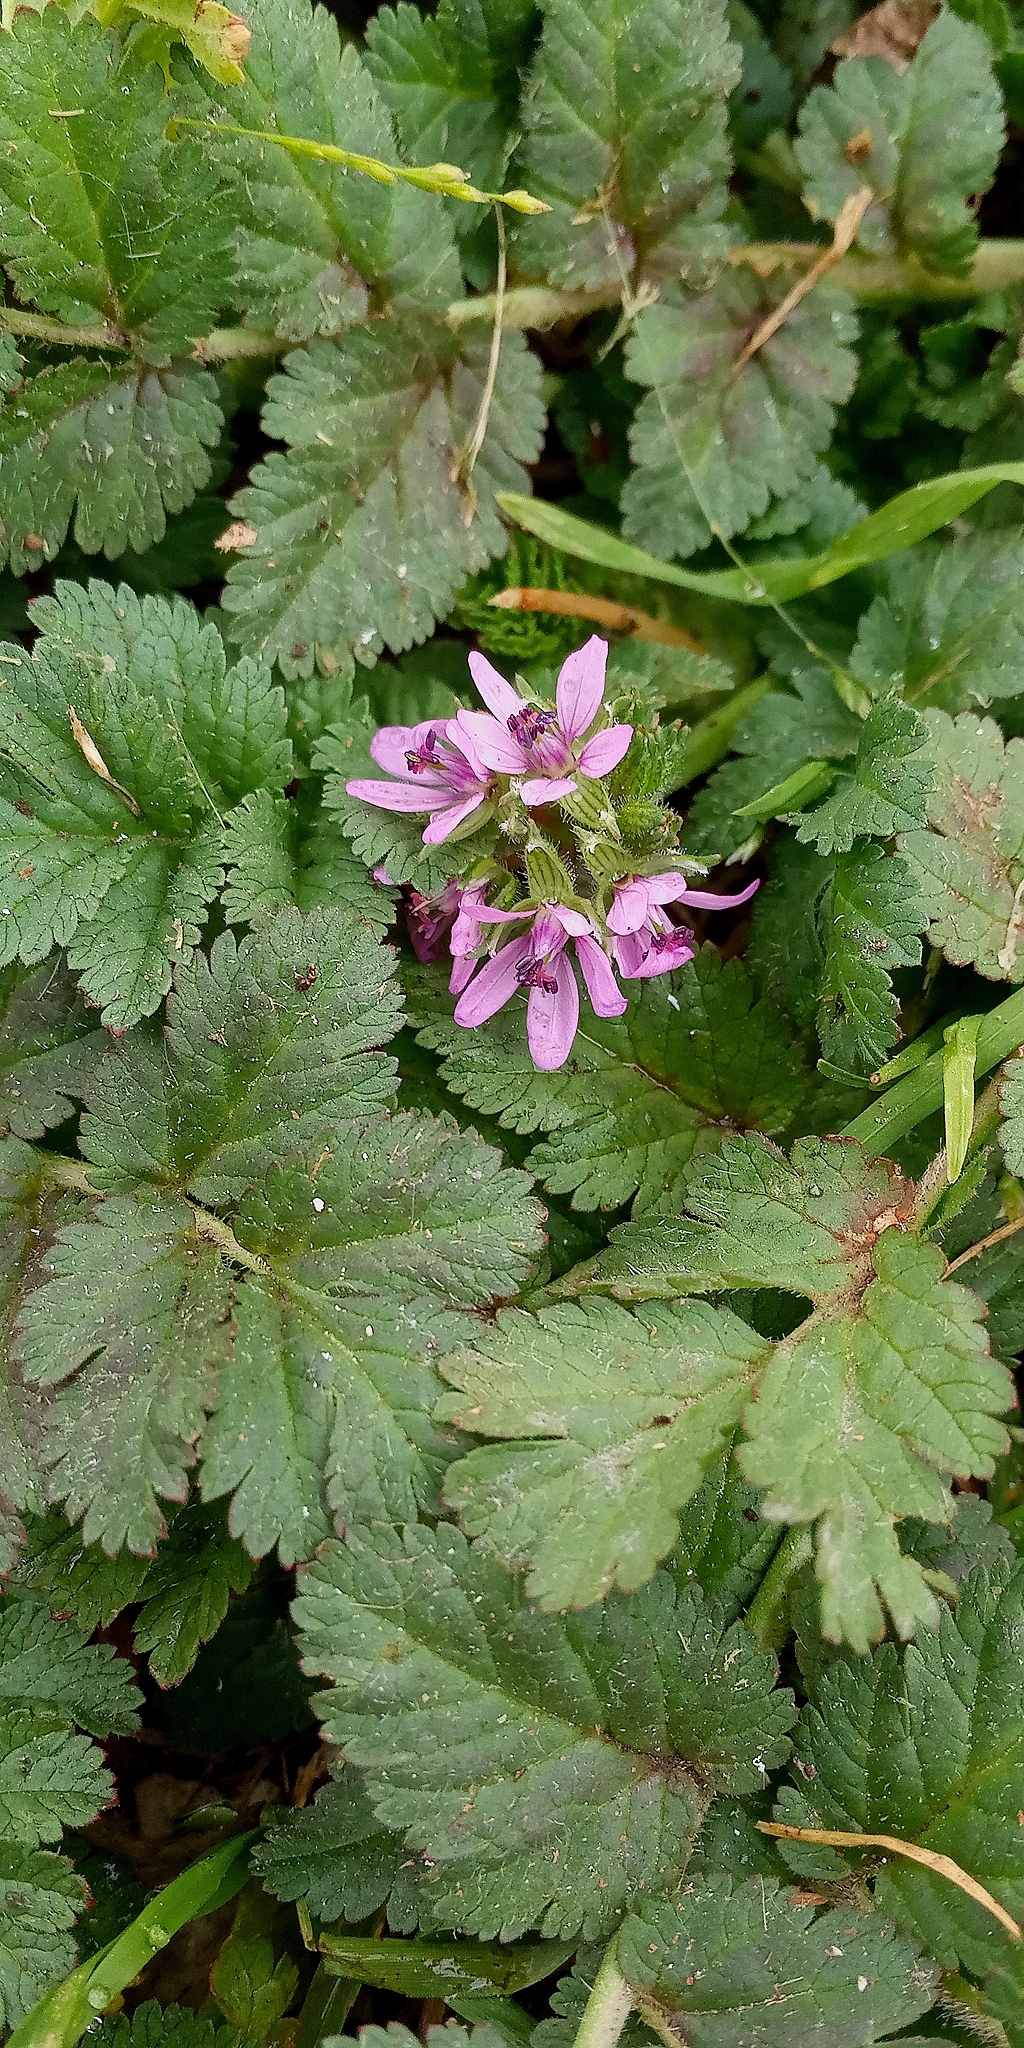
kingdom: Plantae
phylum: Tracheophyta
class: Magnoliopsida
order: Geraniales
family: Geraniaceae
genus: Erodium
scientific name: Erodium cicutarium
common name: Common stork's-bill
